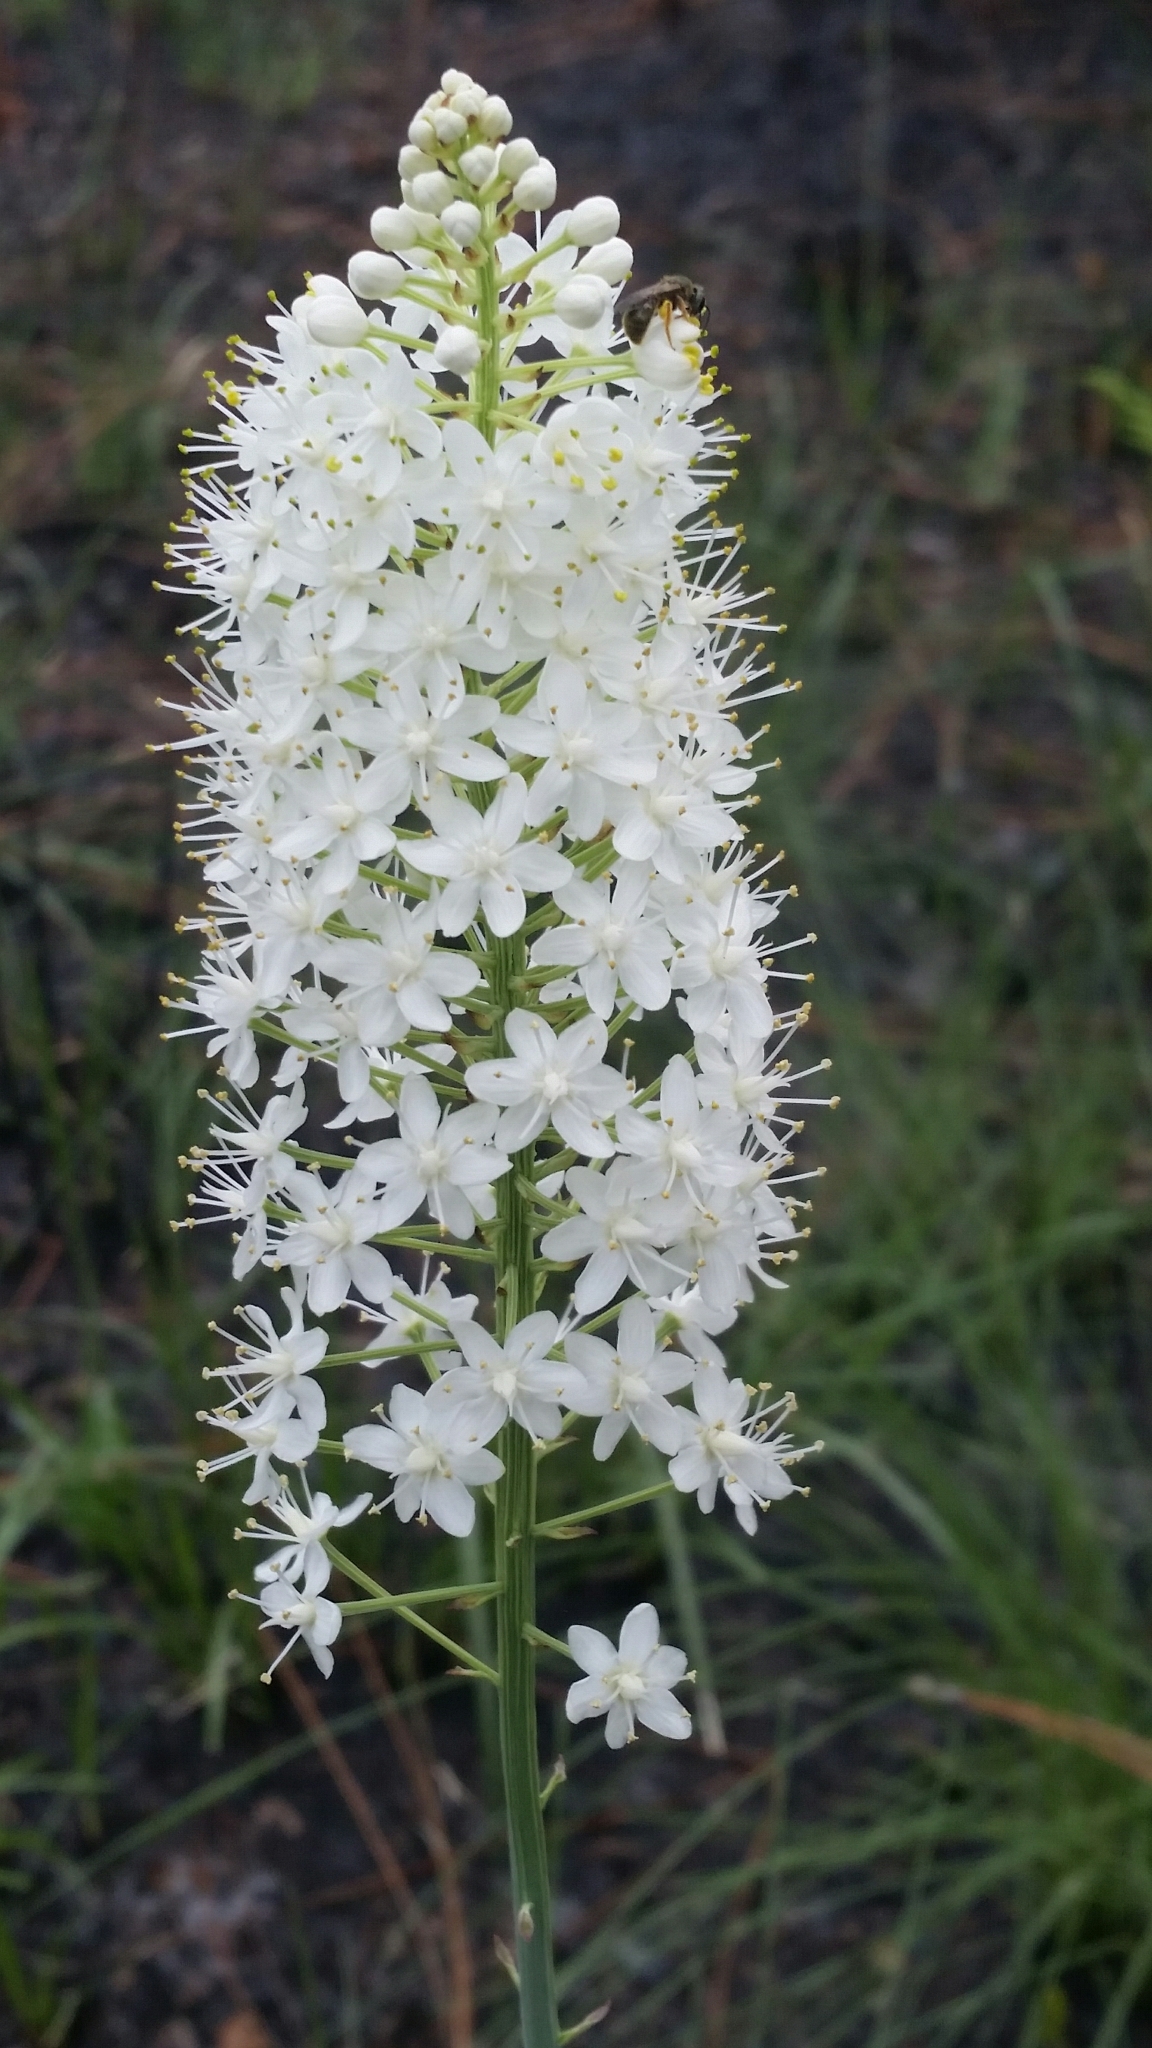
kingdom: Plantae
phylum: Tracheophyta
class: Liliopsida
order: Liliales
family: Melanthiaceae
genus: Stenanthium
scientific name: Stenanthium densum
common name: Crow-poison
